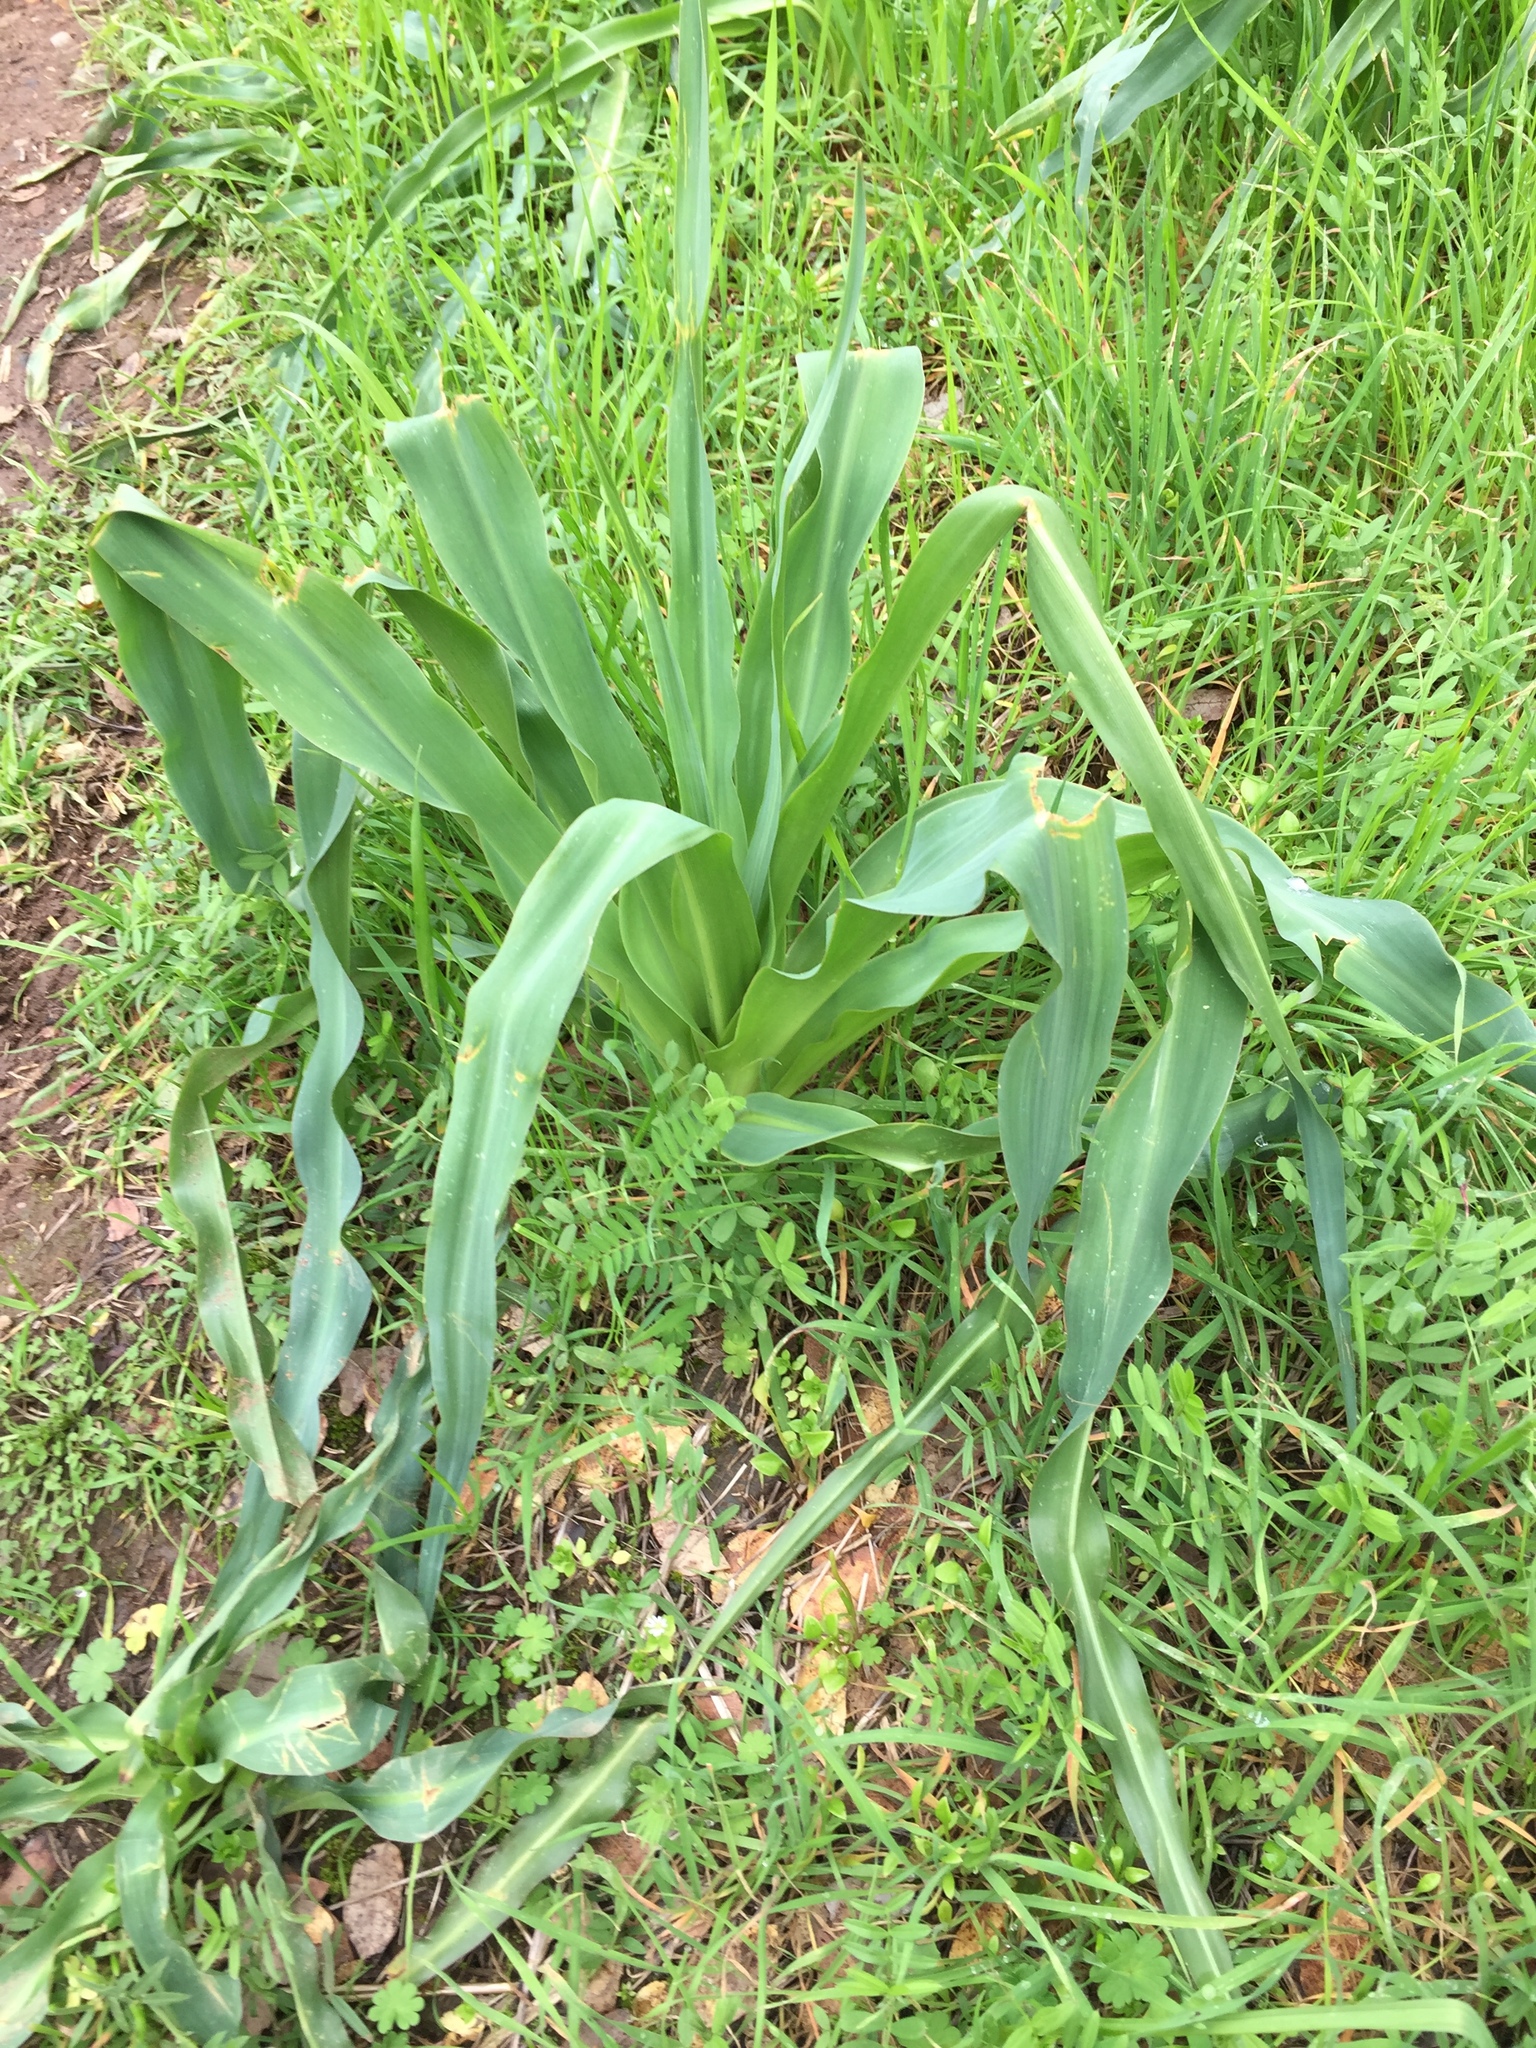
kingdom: Plantae
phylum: Tracheophyta
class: Liliopsida
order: Asparagales
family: Asparagaceae
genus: Chlorogalum
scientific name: Chlorogalum pomeridianum
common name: Amole
